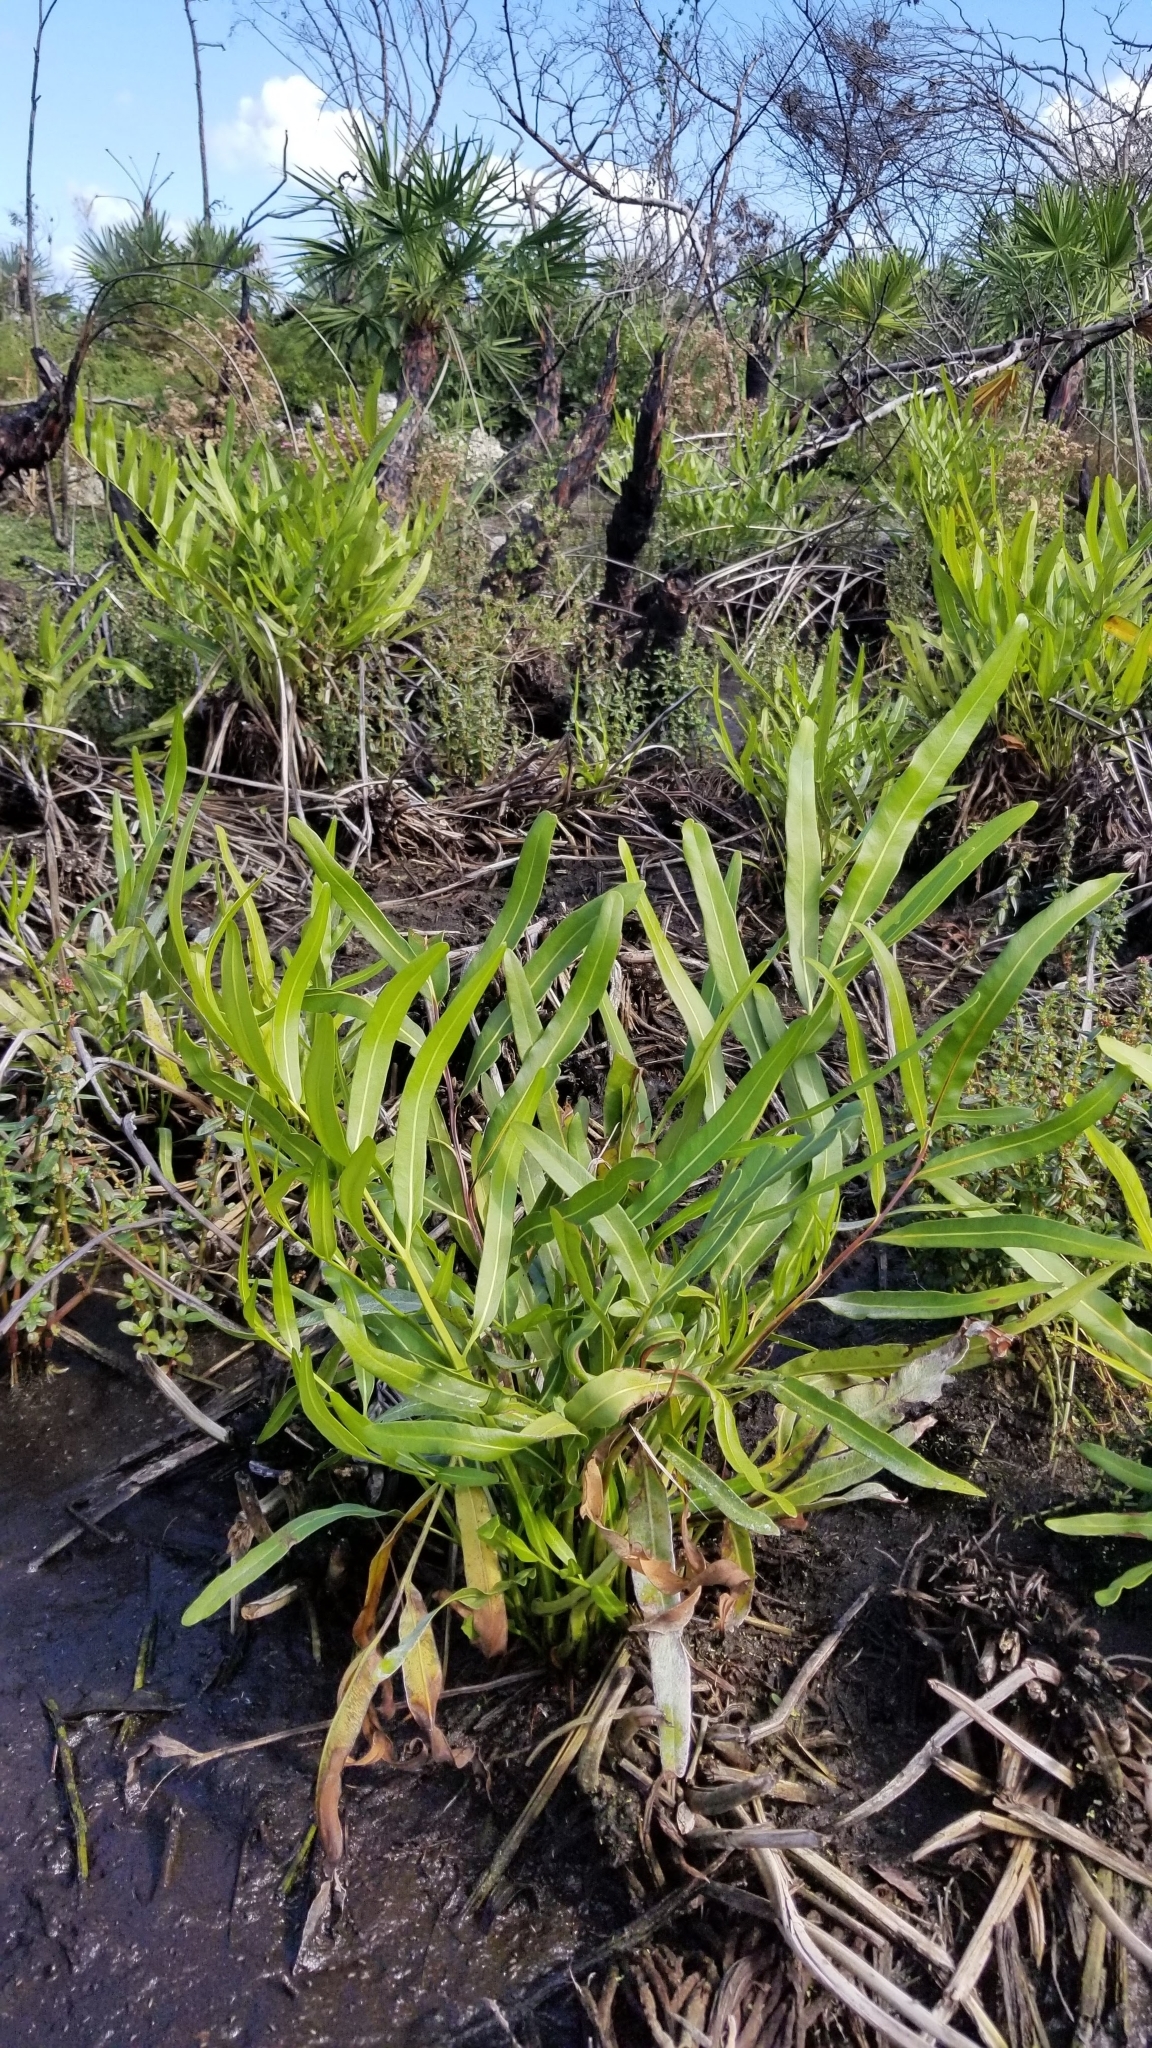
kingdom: Plantae
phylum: Tracheophyta
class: Polypodiopsida
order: Polypodiales
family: Pteridaceae
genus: Acrostichum
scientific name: Acrostichum aureum
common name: Leather fern
